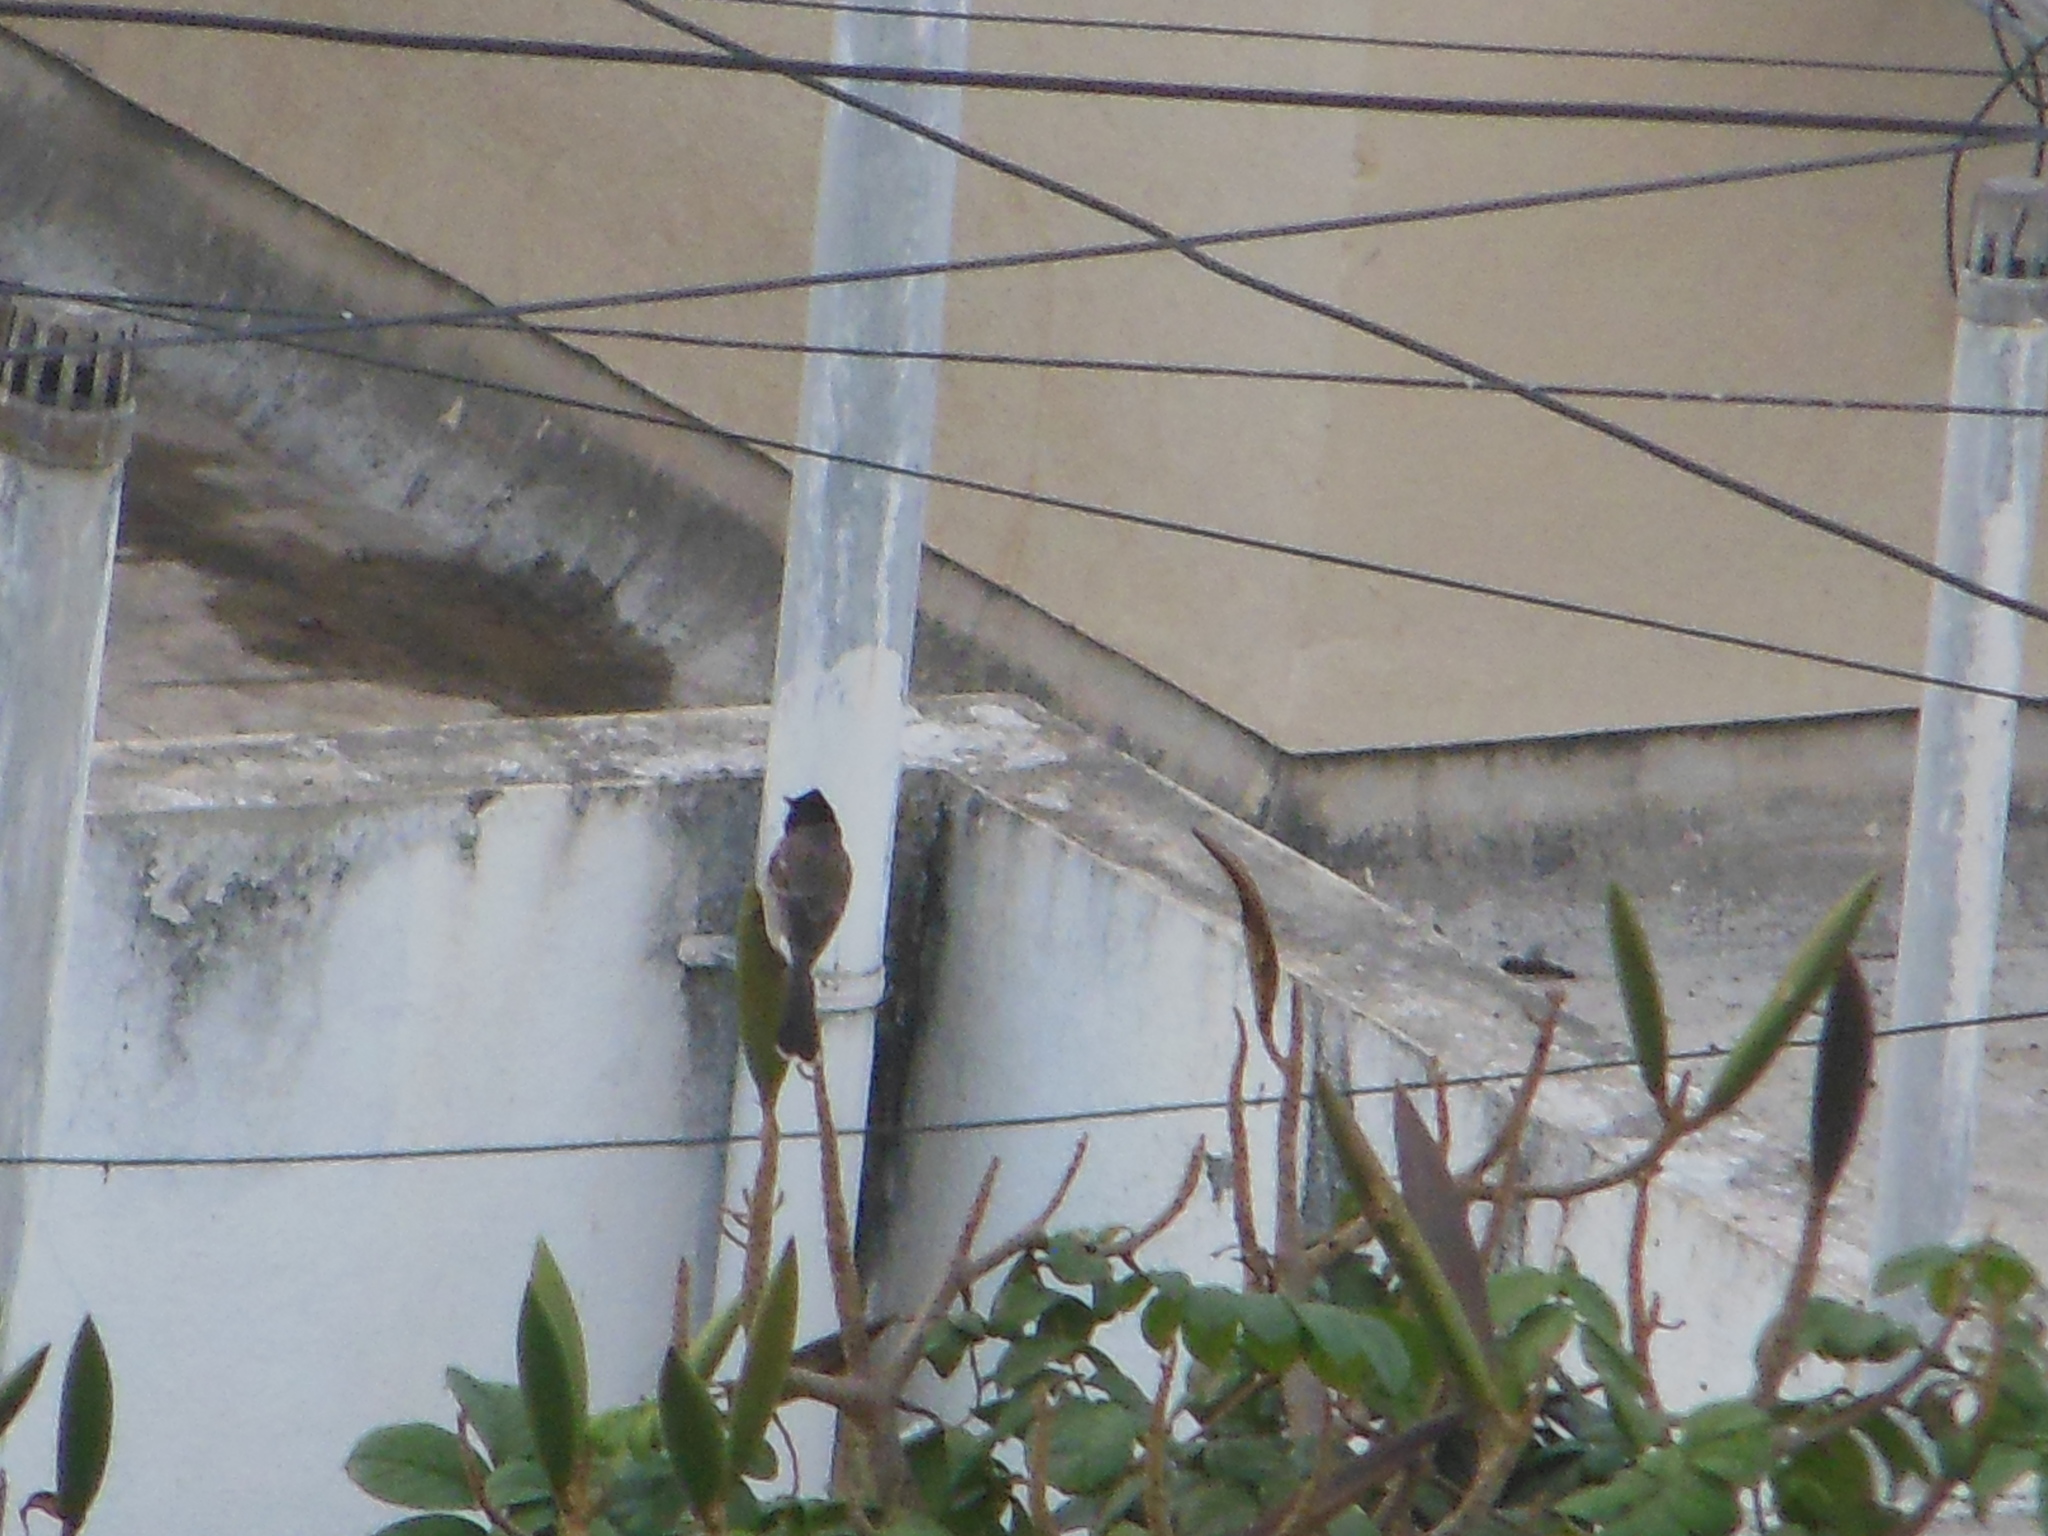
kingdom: Animalia
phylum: Chordata
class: Aves
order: Passeriformes
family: Pycnonotidae
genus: Pycnonotus
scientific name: Pycnonotus cafer
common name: Red-vented bulbul
